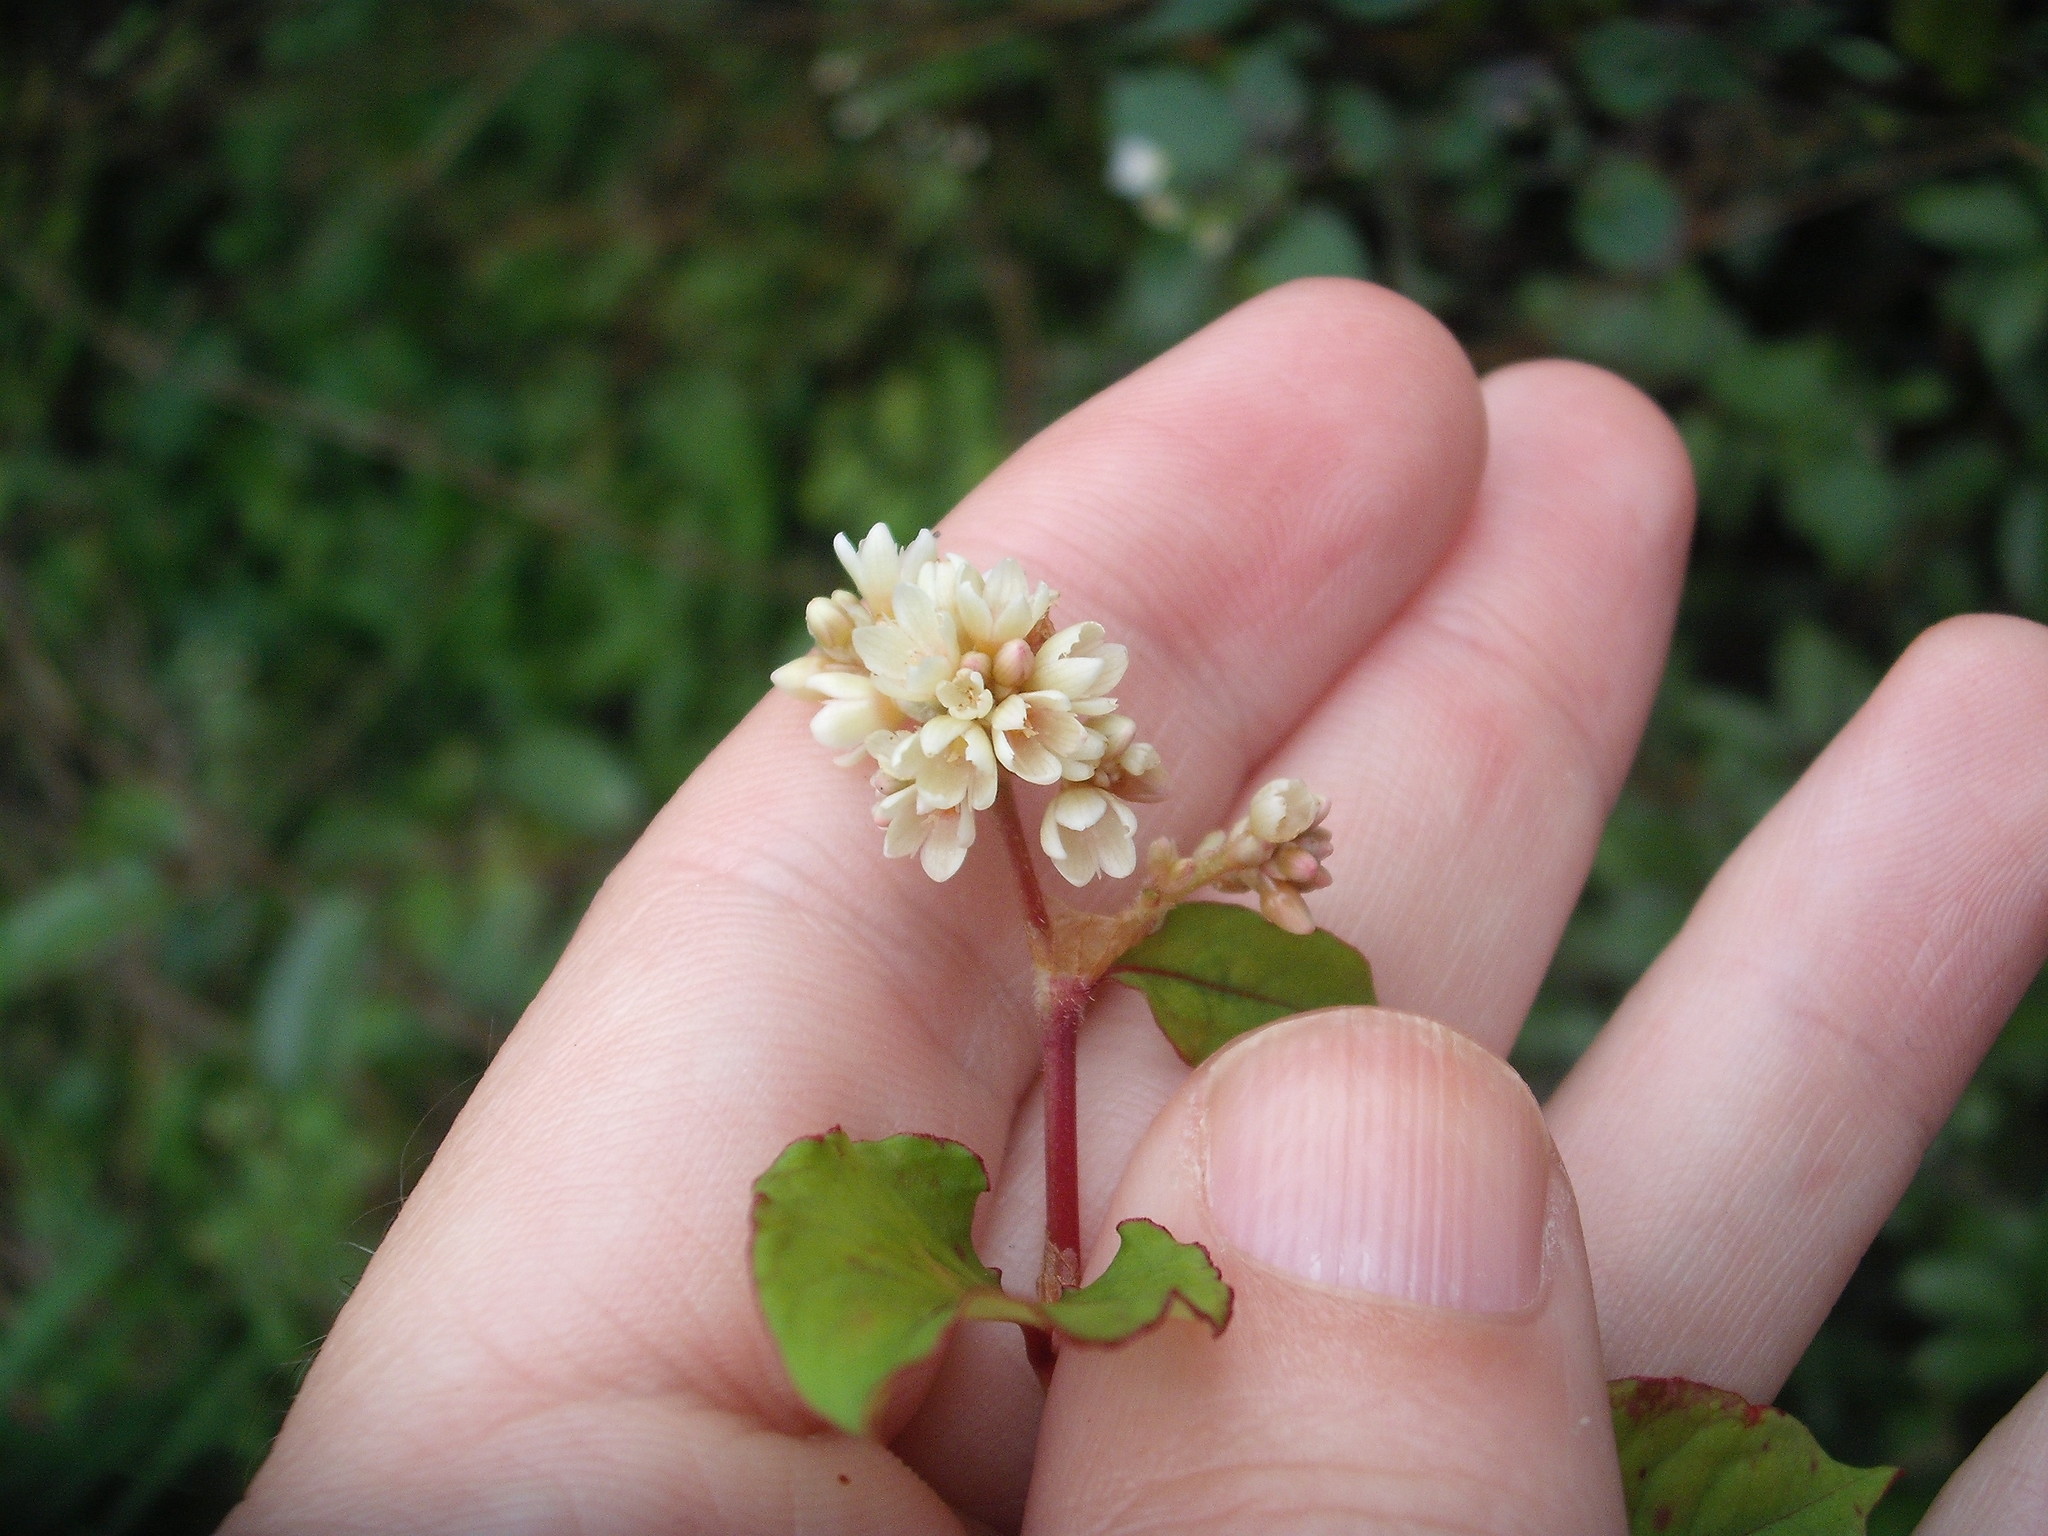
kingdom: Plantae
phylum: Tracheophyta
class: Magnoliopsida
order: Caryophyllales
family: Polygonaceae
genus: Persicaria
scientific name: Persicaria chinensis
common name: Chinese knotweed
